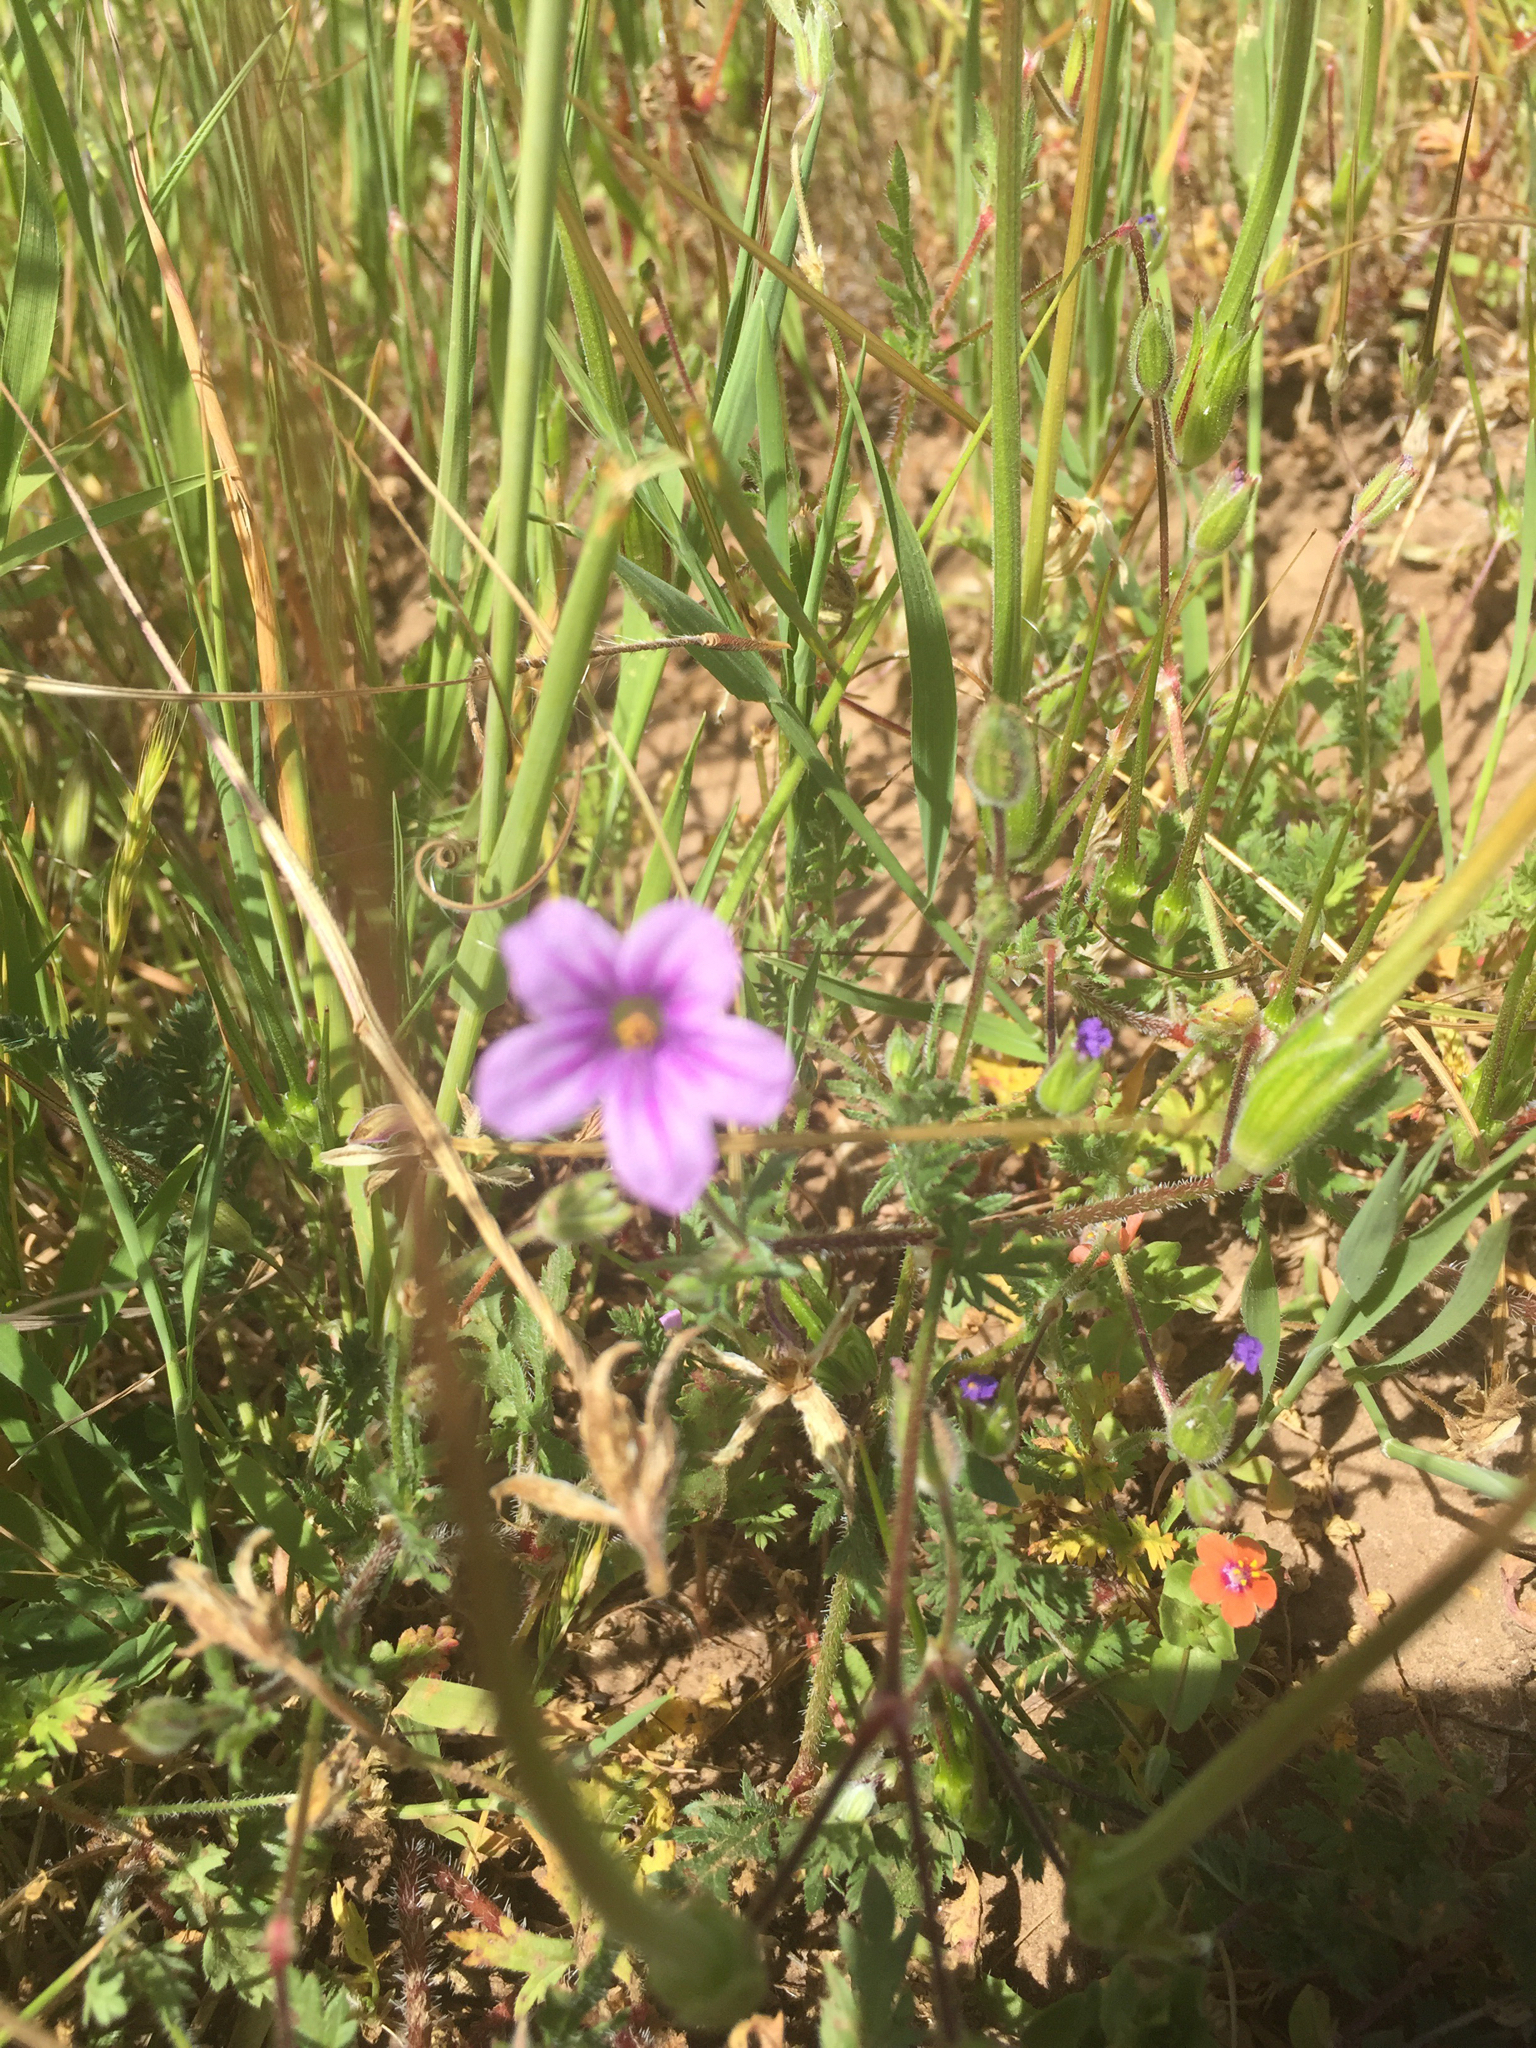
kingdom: Plantae
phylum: Tracheophyta
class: Magnoliopsida
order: Geraniales
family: Geraniaceae
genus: Erodium
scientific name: Erodium botrys
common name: Mediterranean stork's-bill
